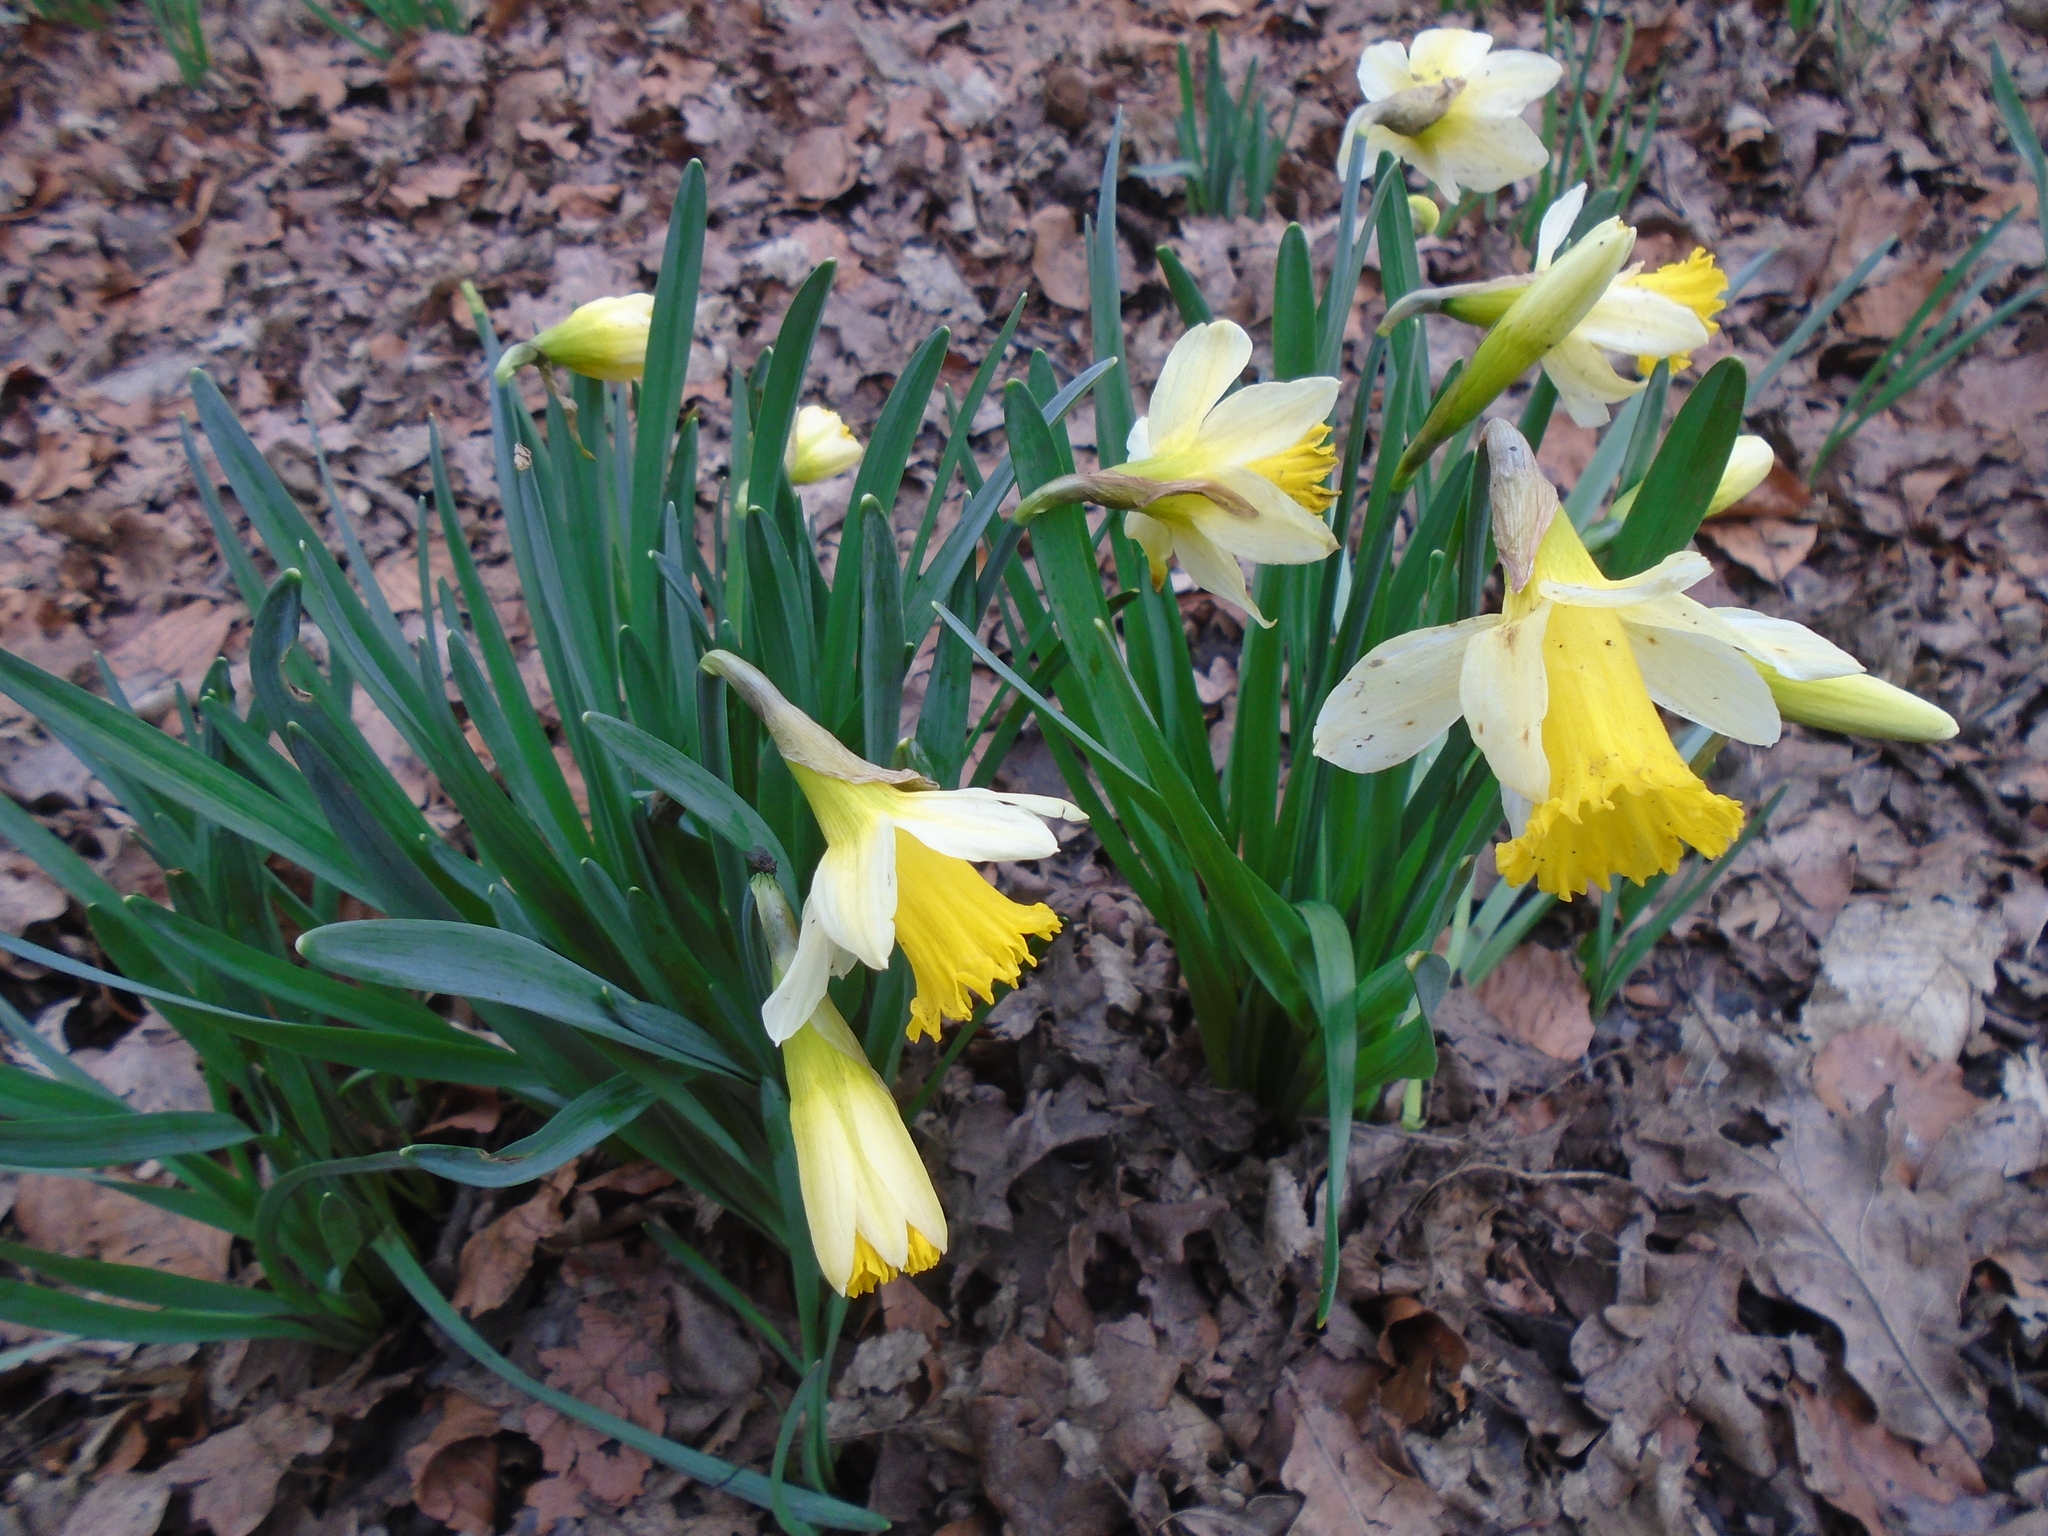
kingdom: Plantae
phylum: Tracheophyta
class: Liliopsida
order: Asparagales
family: Amaryllidaceae
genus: Narcissus
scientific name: Narcissus pseudonarcissus
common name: Daffodil
